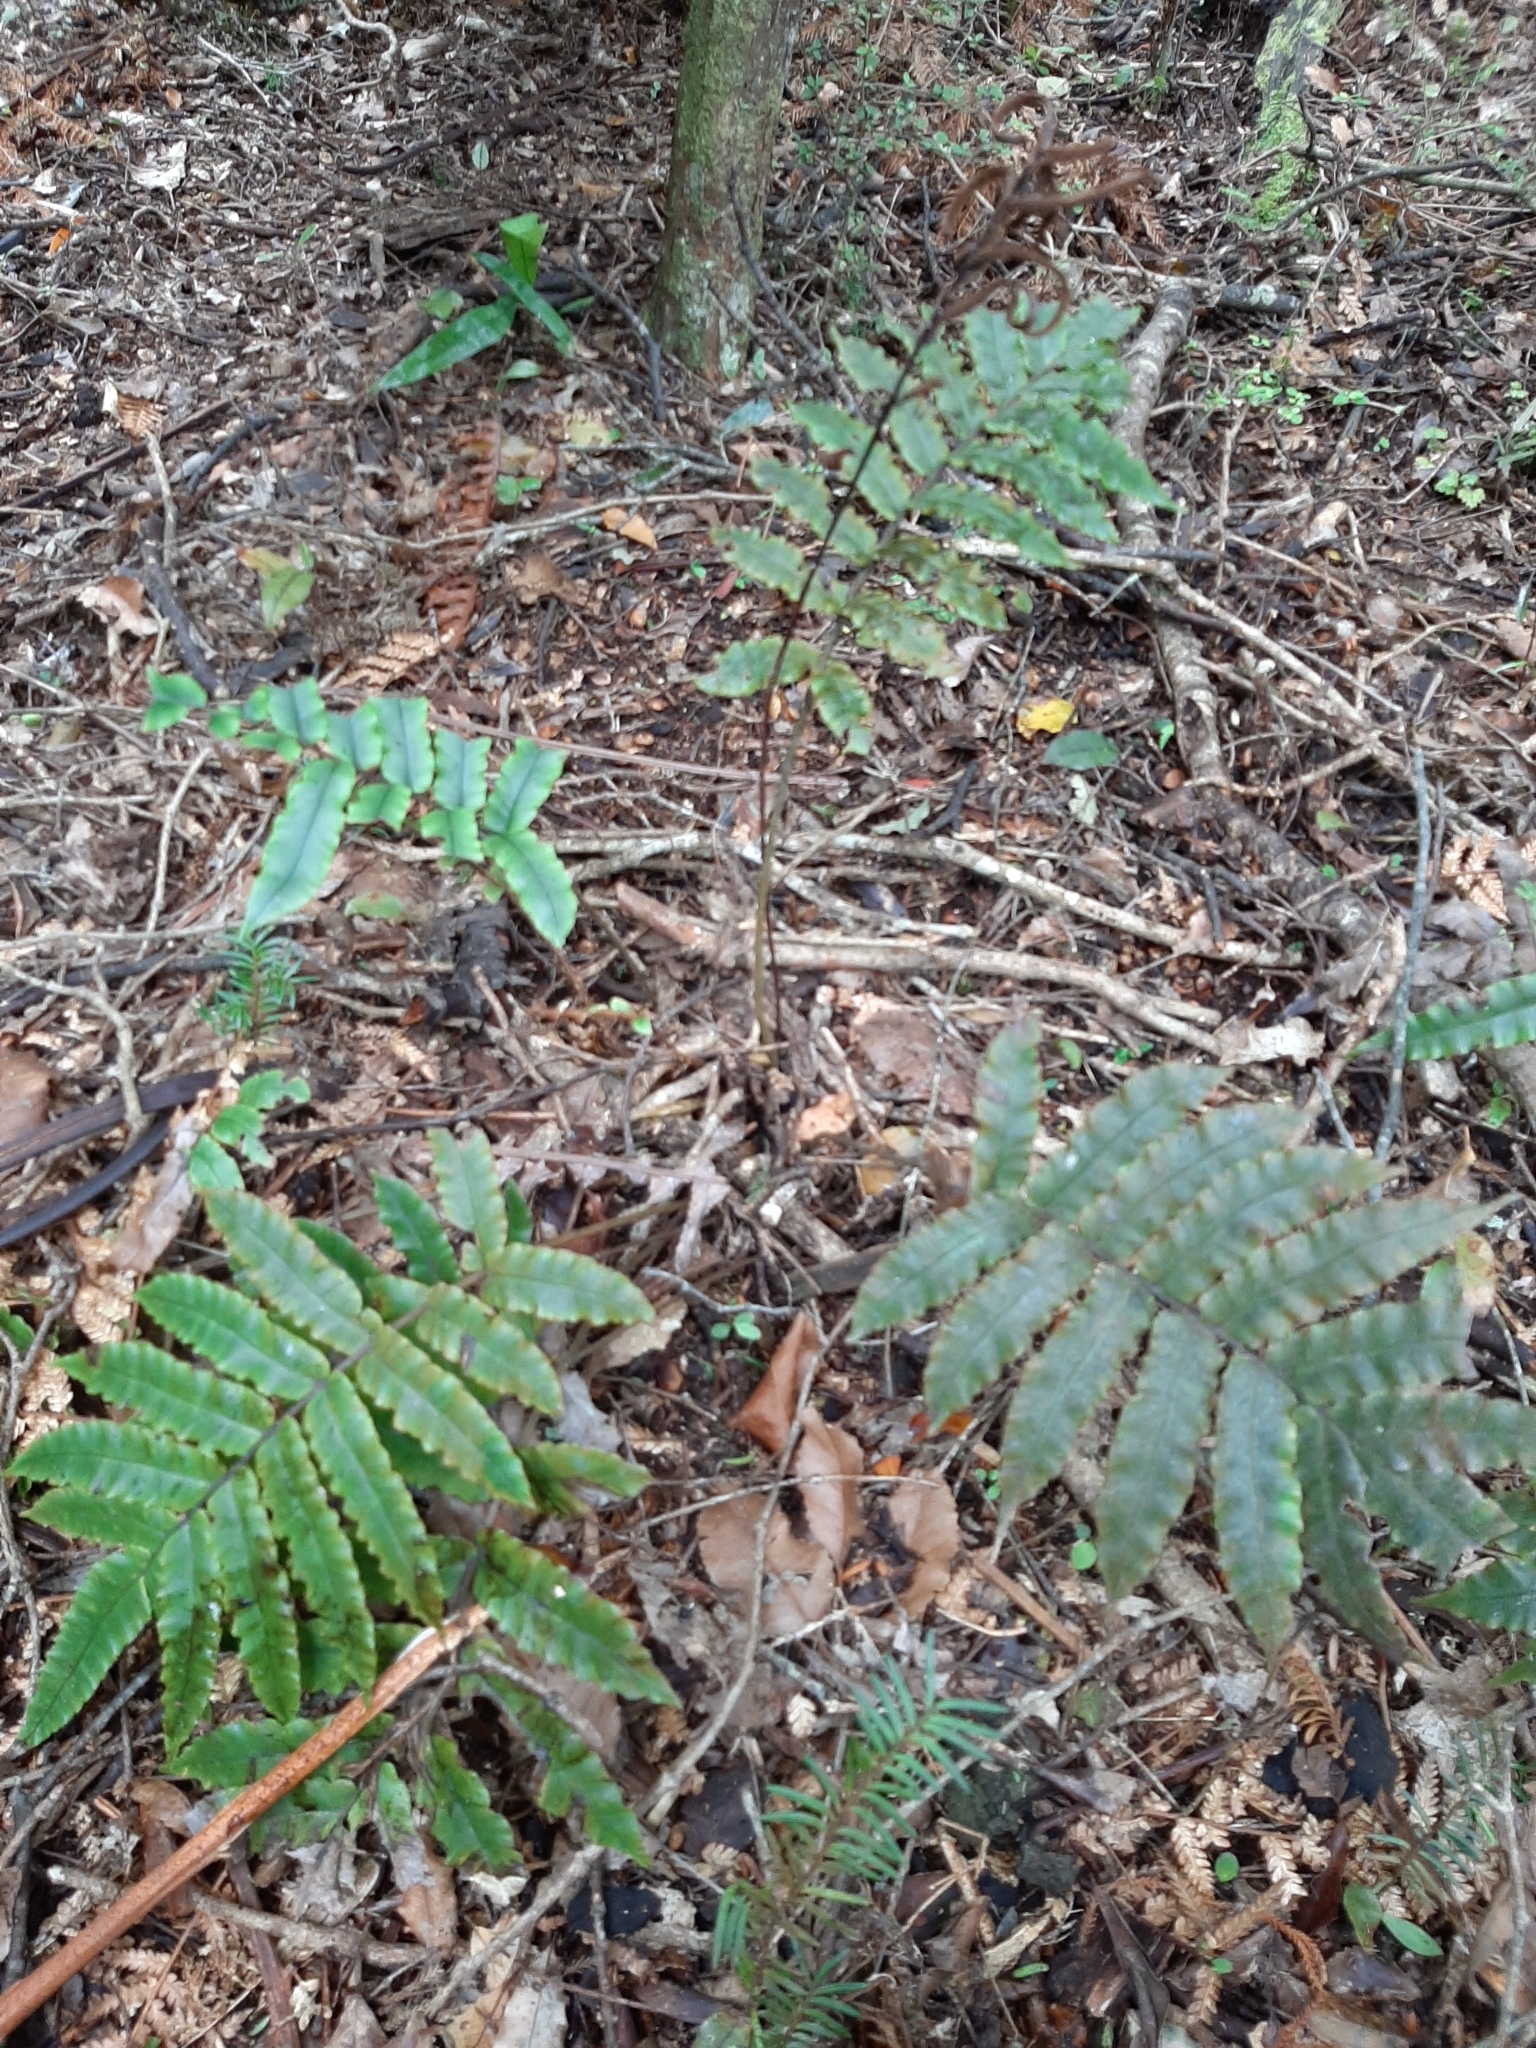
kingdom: Plantae
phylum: Tracheophyta
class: Polypodiopsida
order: Polypodiales
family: Blechnaceae
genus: Parablechnum
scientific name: Parablechnum procerum
